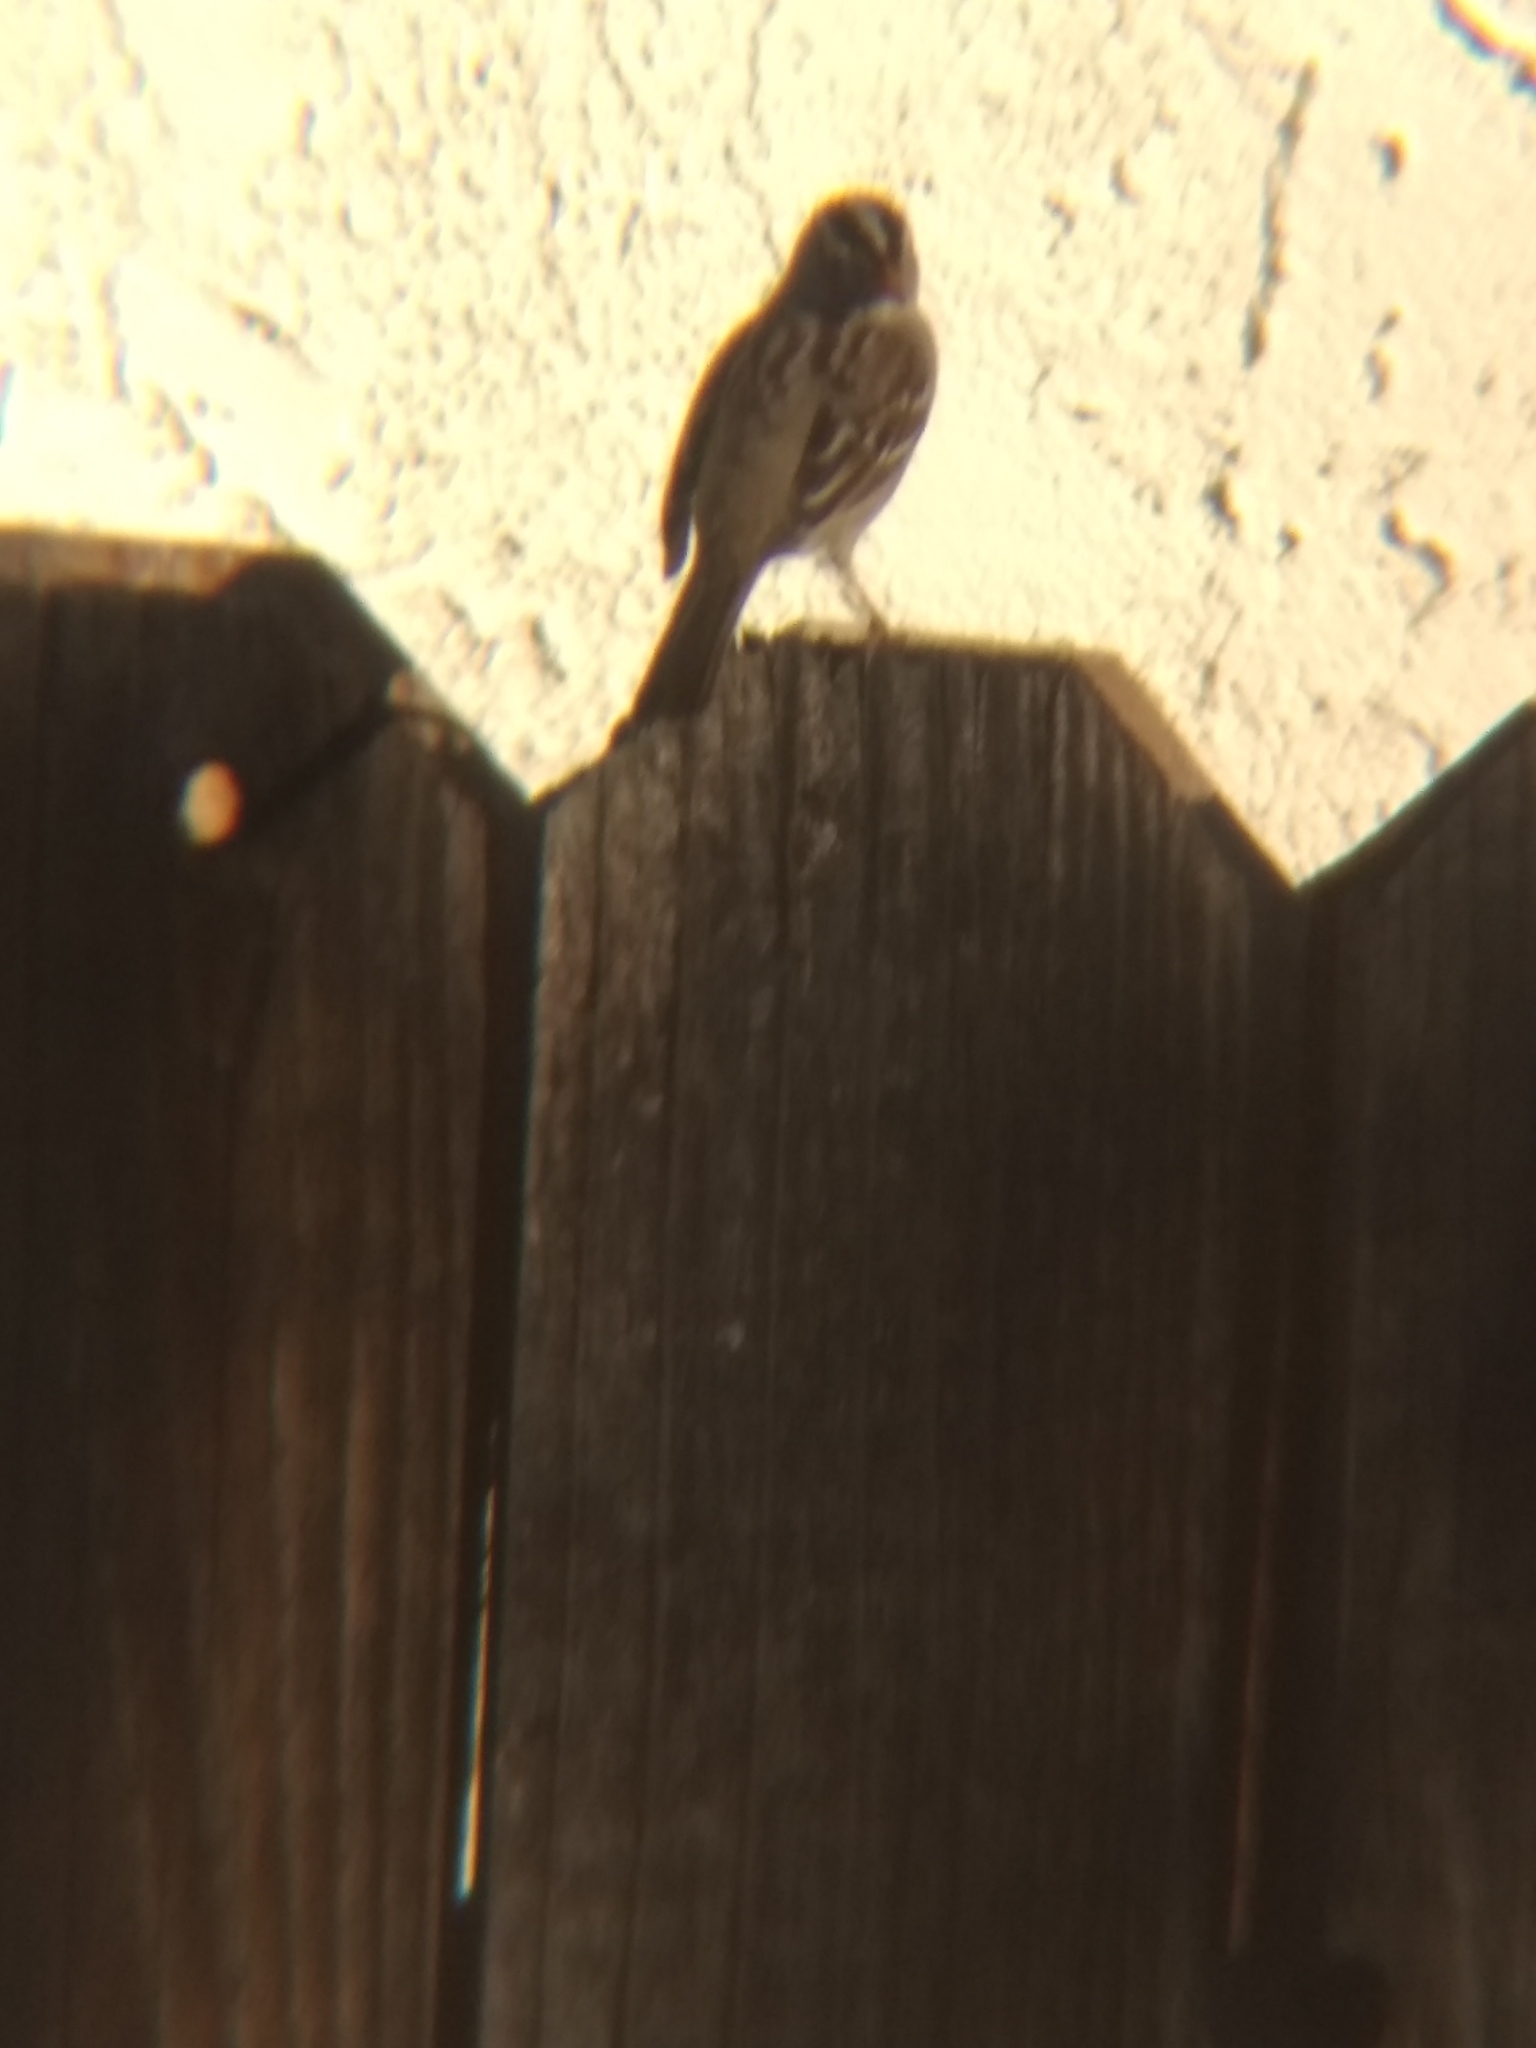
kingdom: Animalia
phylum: Chordata
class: Aves
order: Passeriformes
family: Passerellidae
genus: Zonotrichia
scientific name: Zonotrichia leucophrys
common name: White-crowned sparrow
